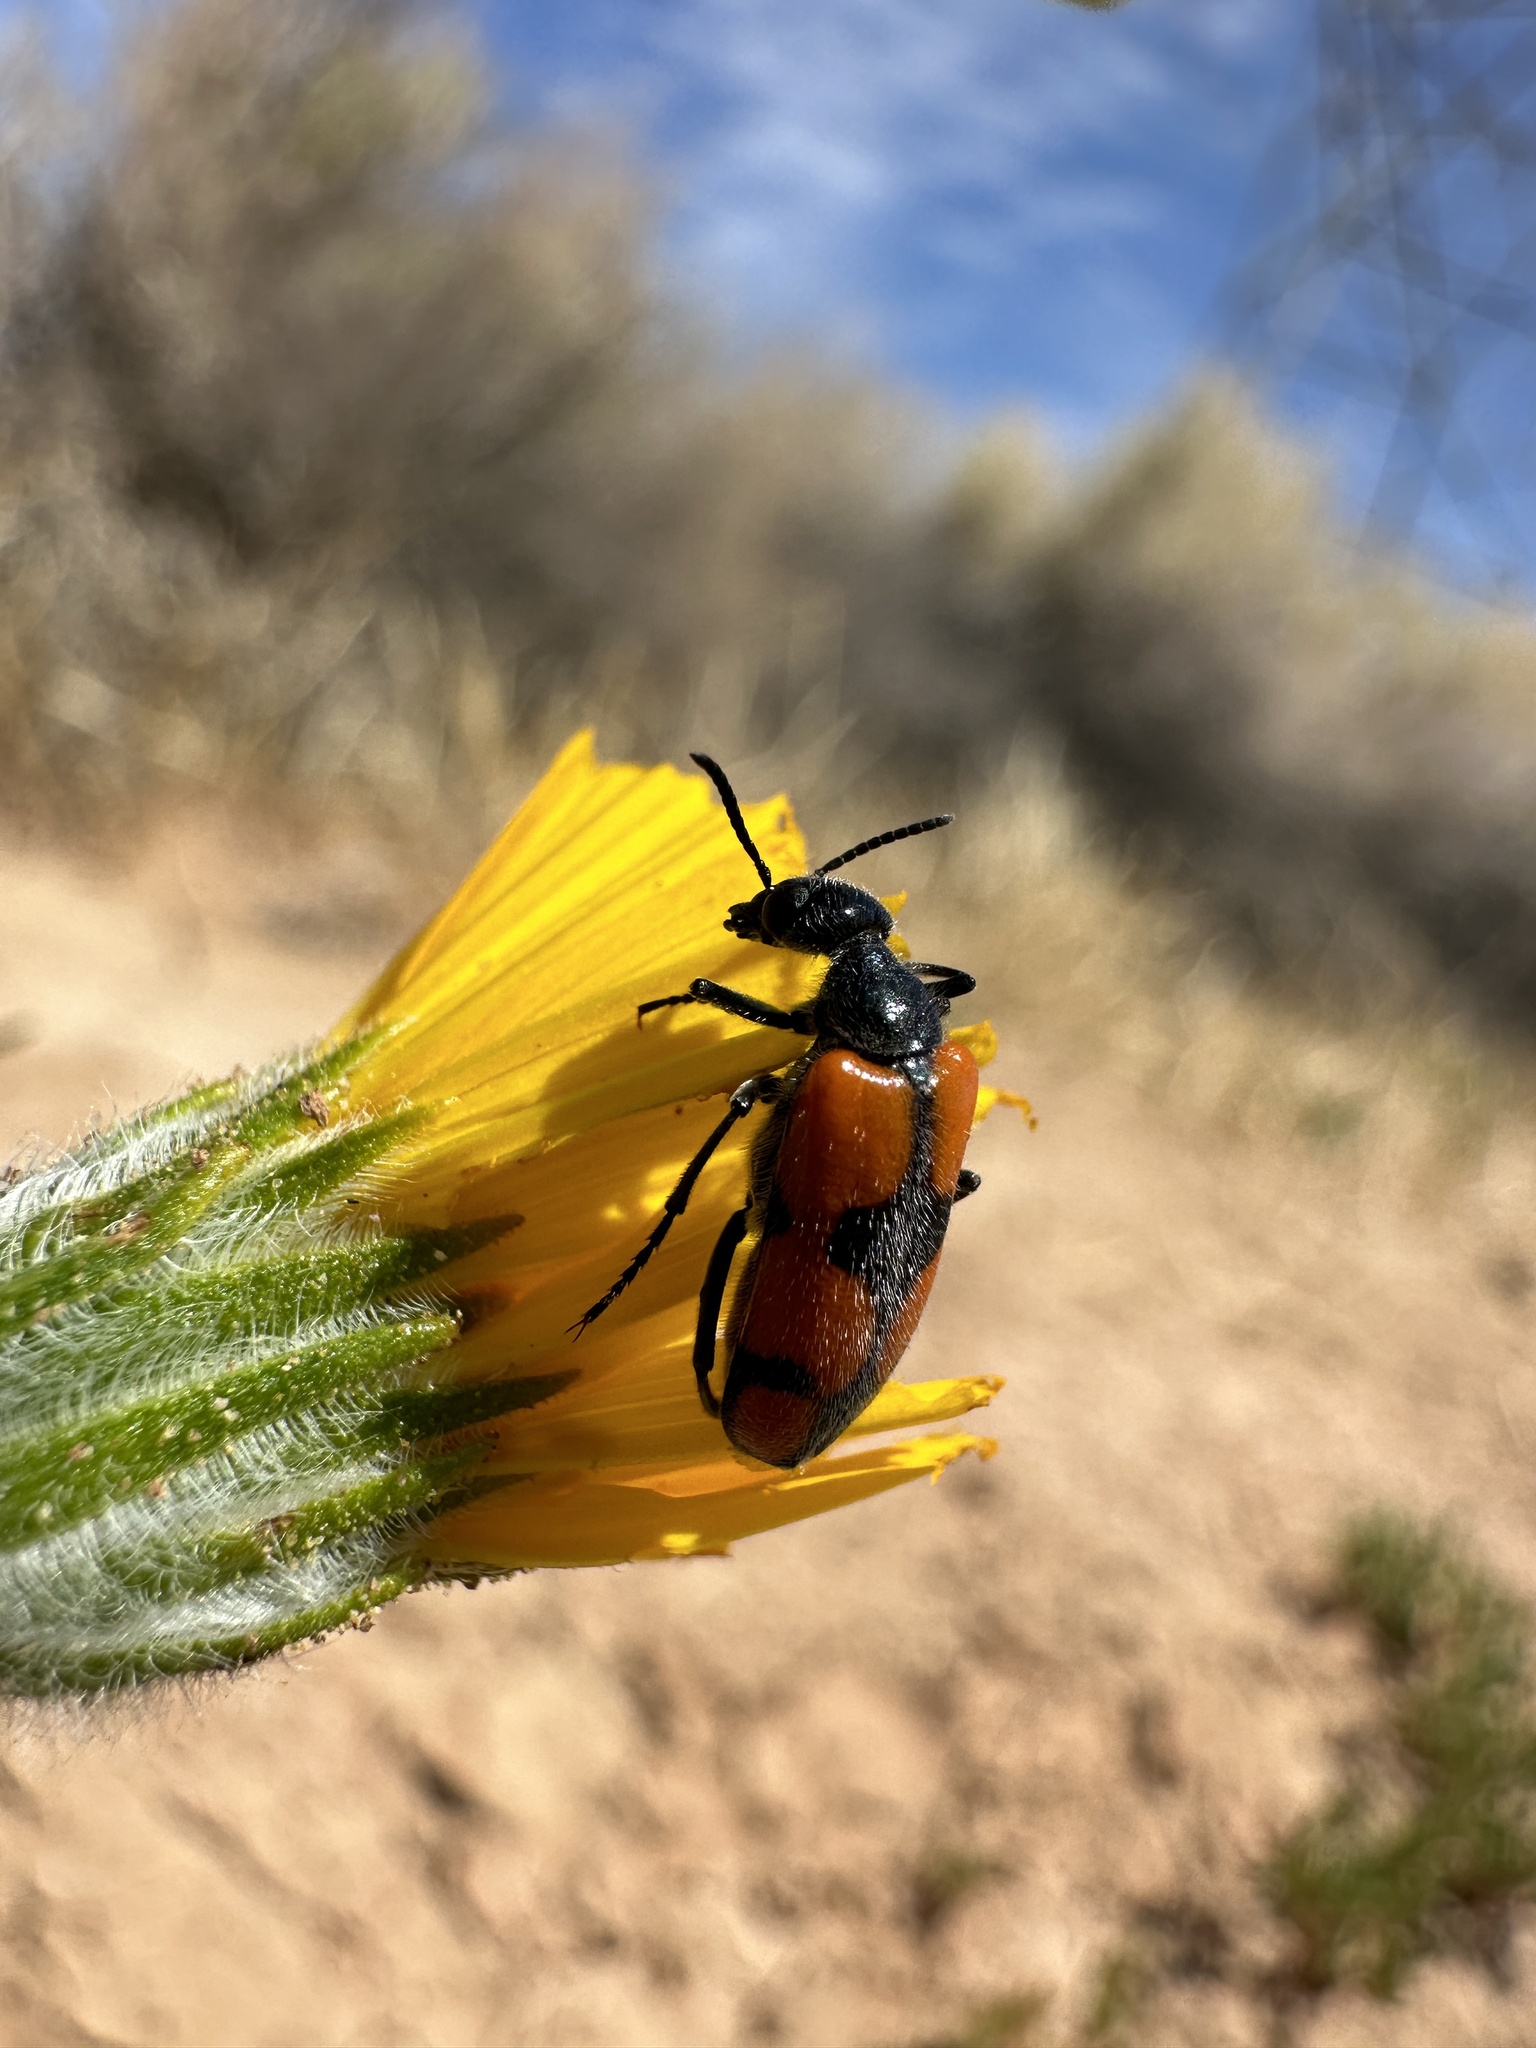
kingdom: Animalia
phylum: Arthropoda
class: Insecta
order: Coleoptera
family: Meloidae
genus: Eupompha
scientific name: Eupompha elegans
